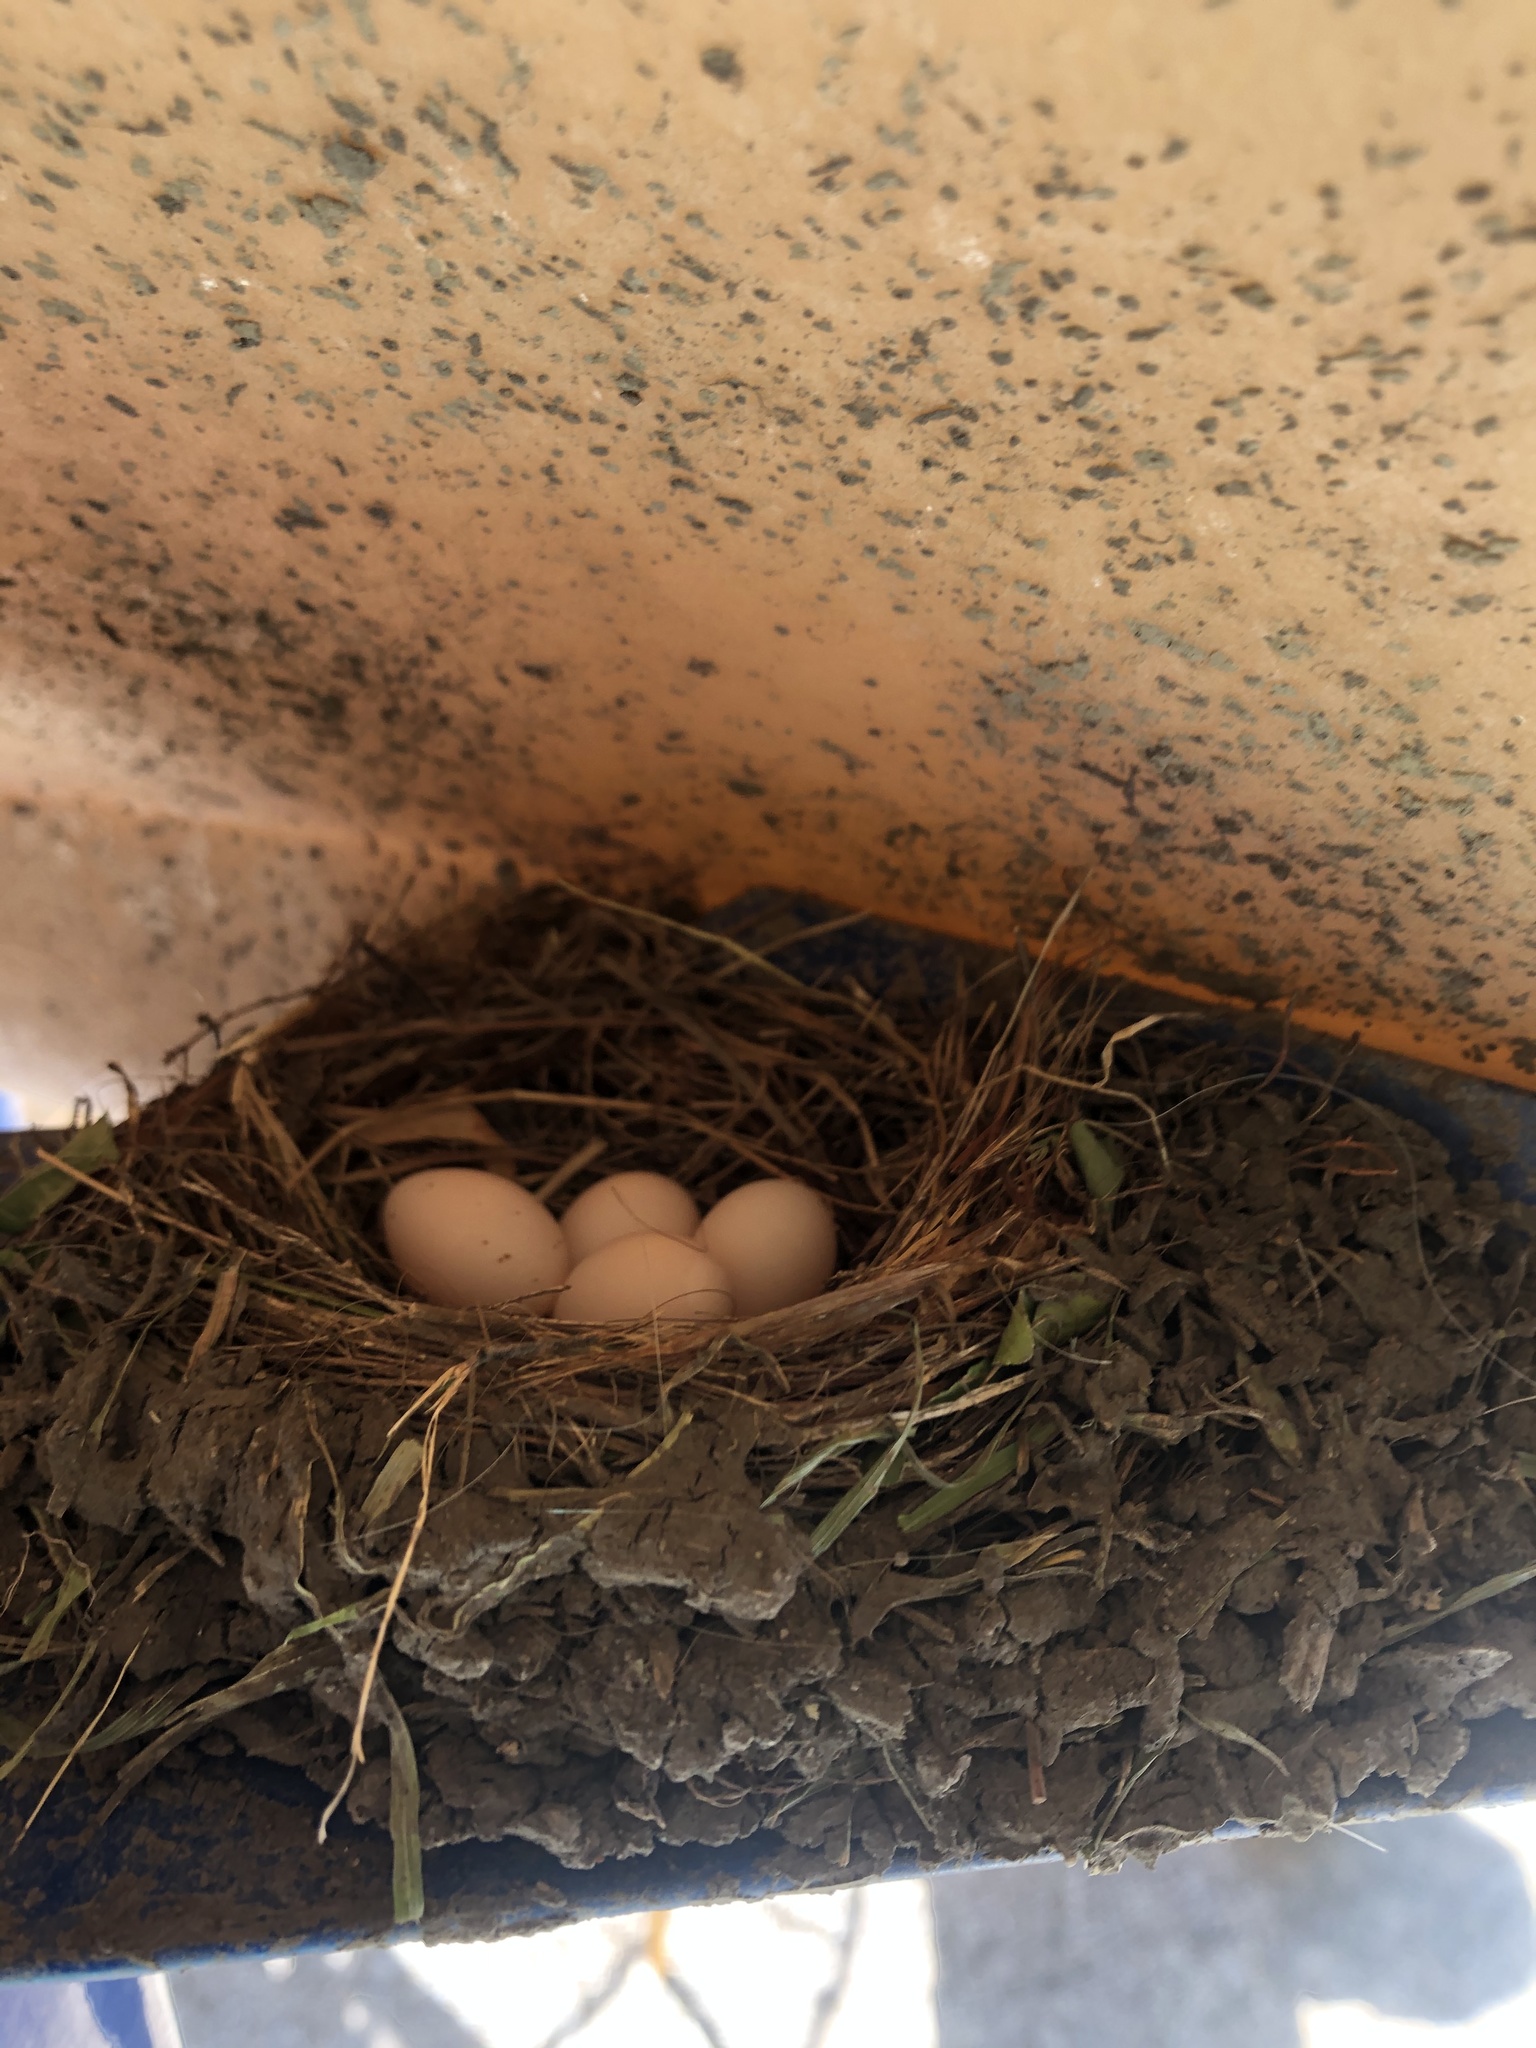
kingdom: Animalia
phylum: Chordata
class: Aves
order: Passeriformes
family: Tyrannidae
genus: Sayornis
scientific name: Sayornis nigricans
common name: Black phoebe
